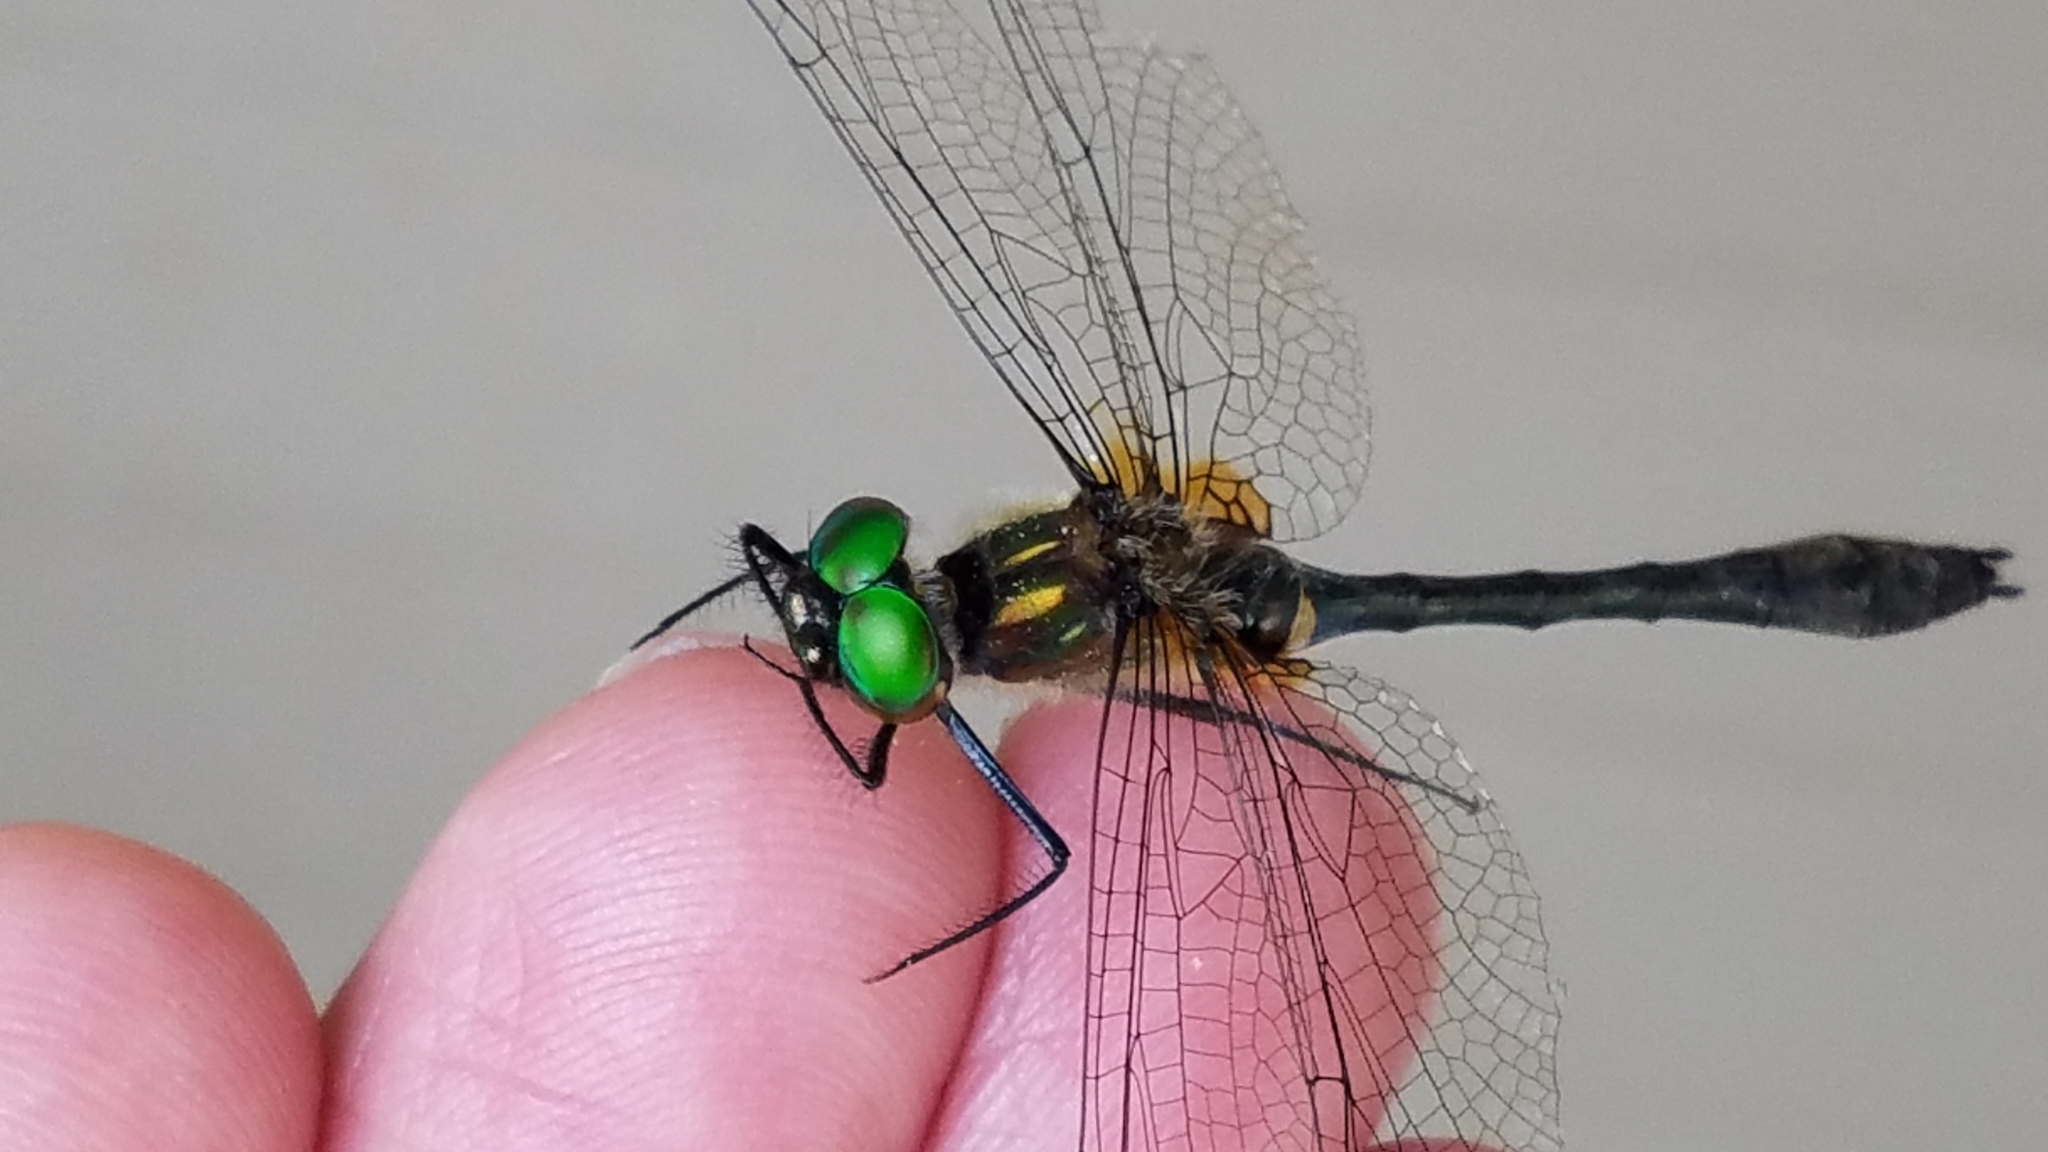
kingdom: Animalia
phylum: Arthropoda
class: Insecta
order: Odonata
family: Corduliidae
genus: Dorocordulia
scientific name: Dorocordulia libera
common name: Racket-tailed emerald
